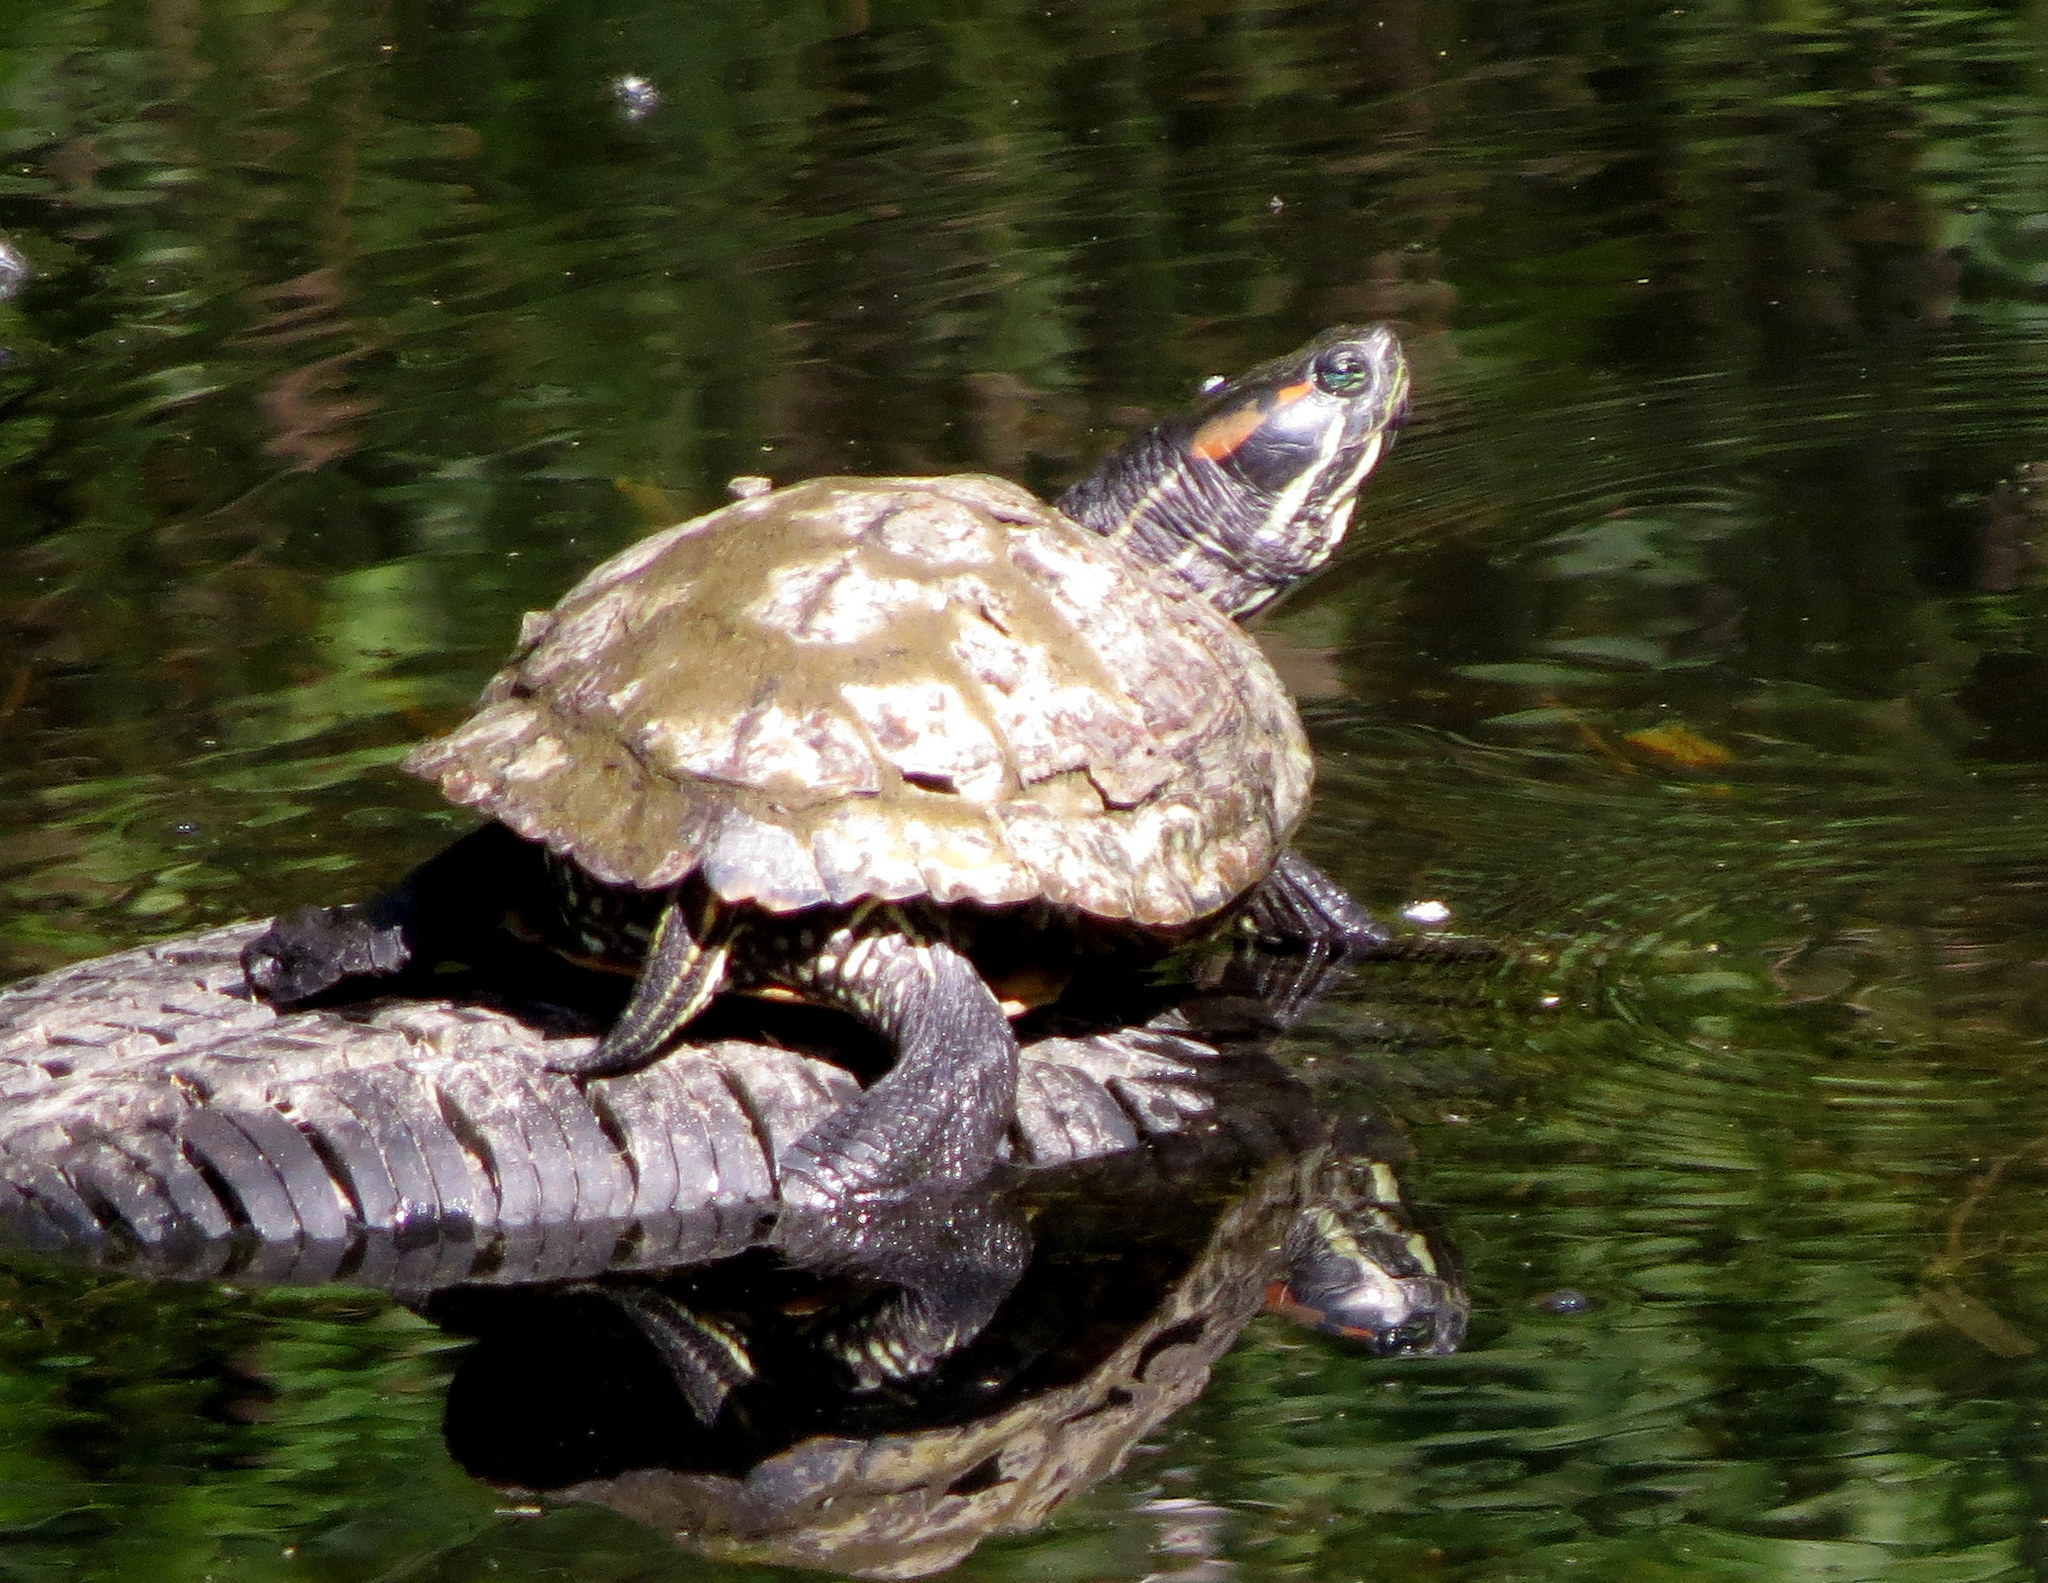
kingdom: Animalia
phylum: Chordata
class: Testudines
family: Emydidae
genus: Trachemys
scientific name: Trachemys scripta
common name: Slider
